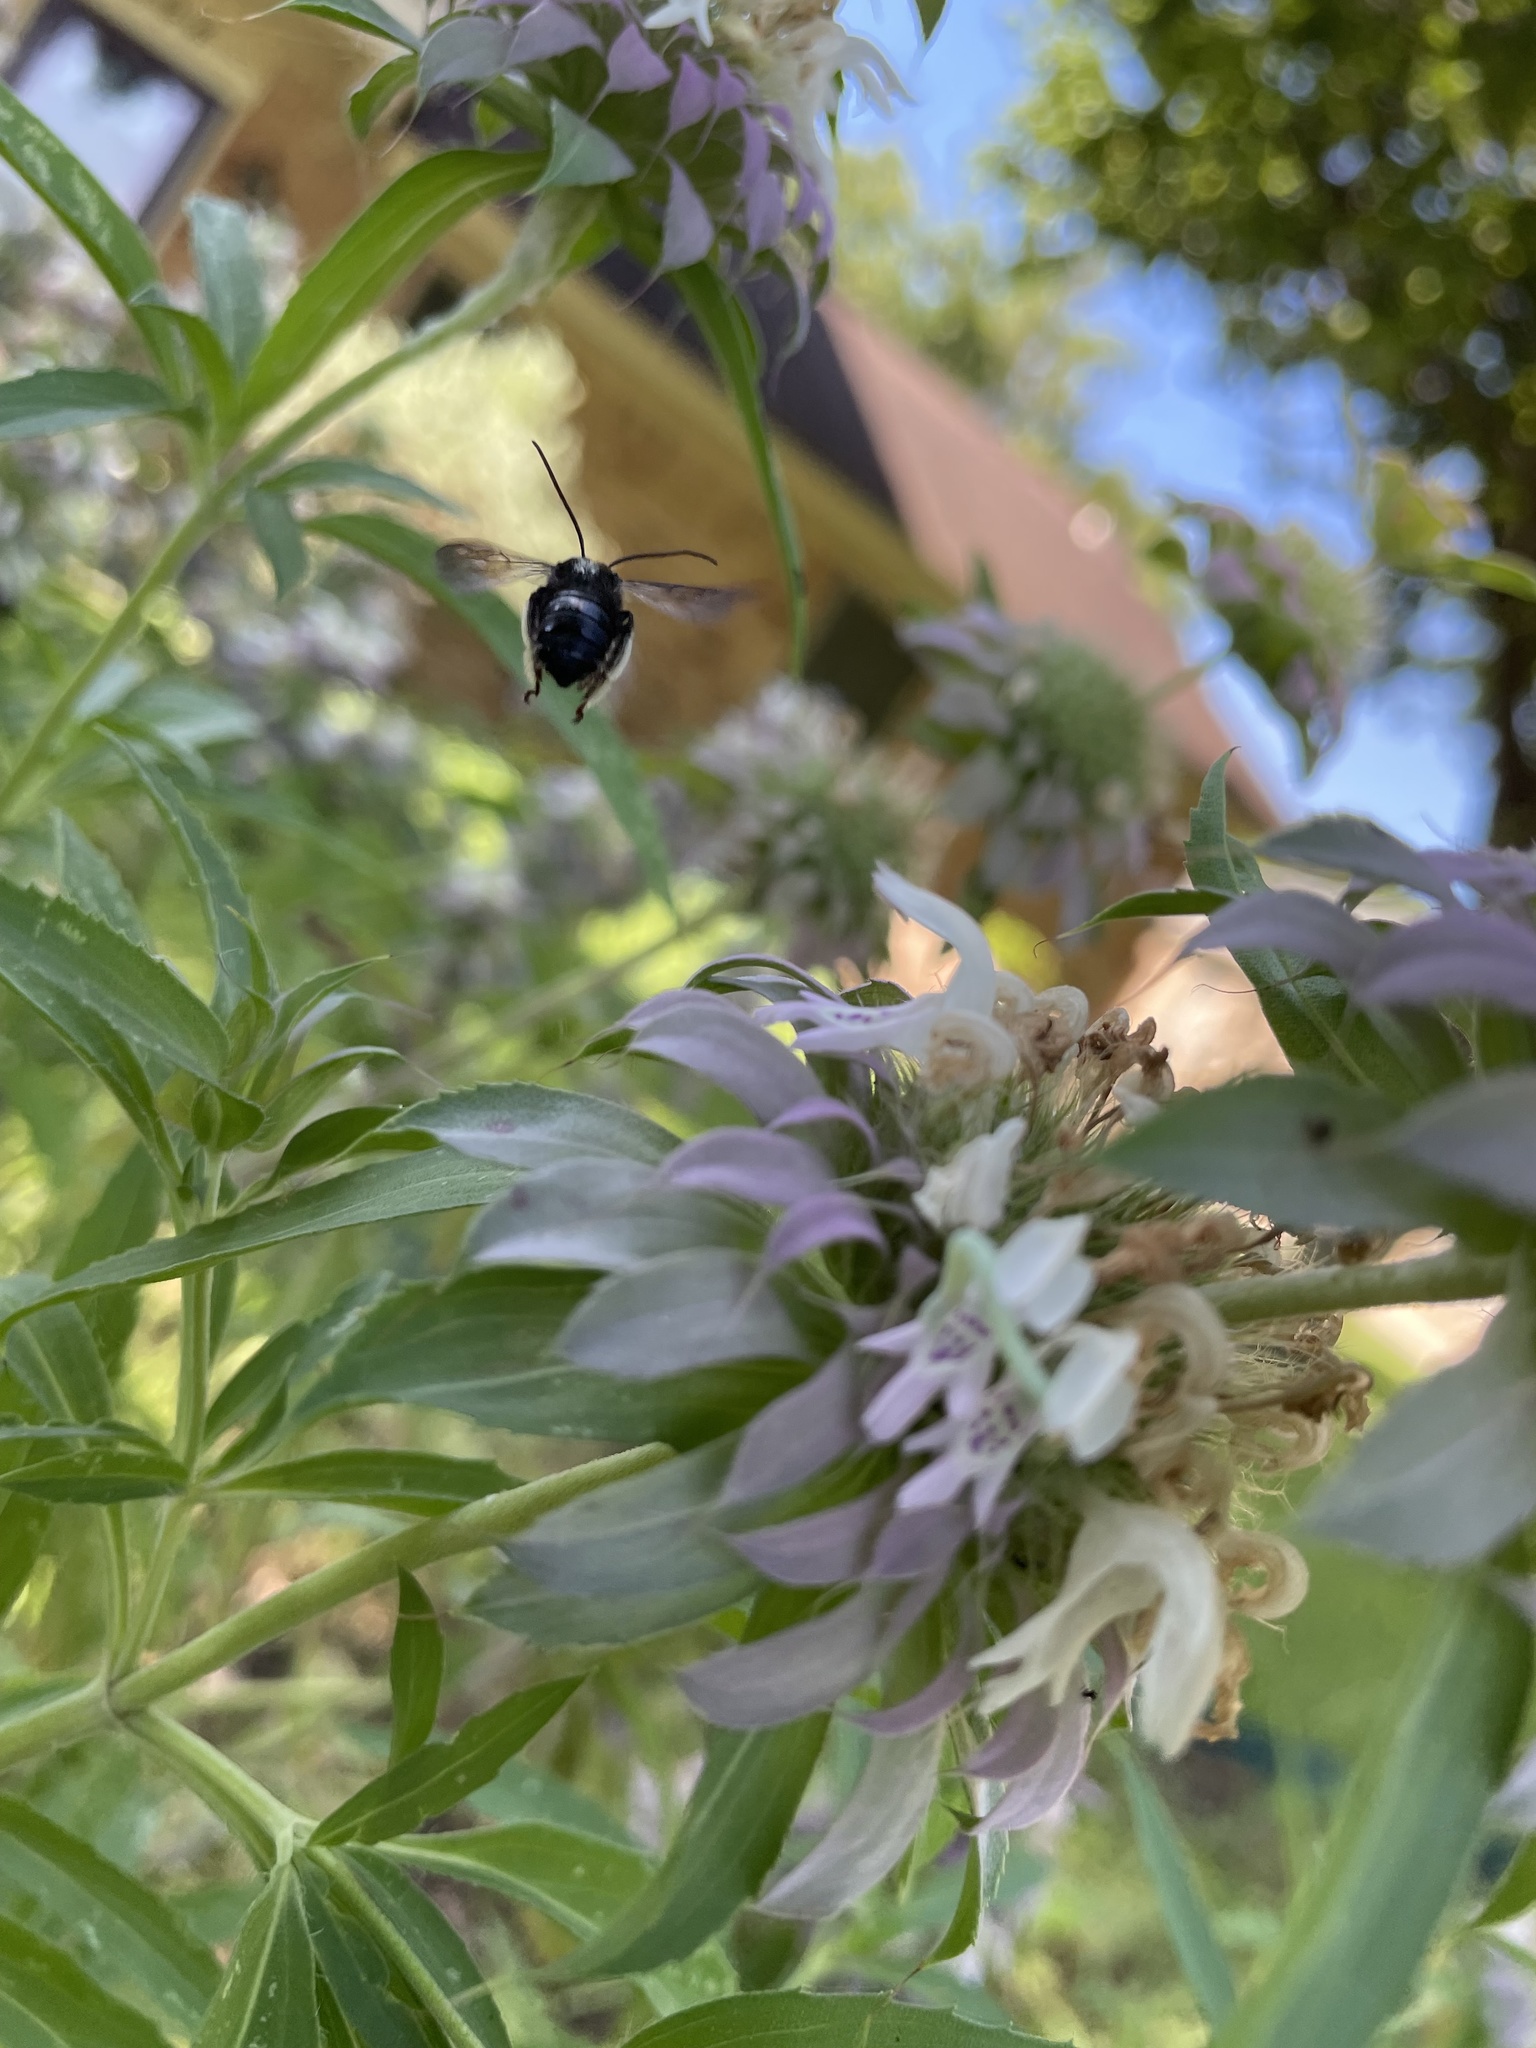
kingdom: Animalia
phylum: Arthropoda
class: Insecta
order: Hymenoptera
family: Apidae
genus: Melissodes
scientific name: Melissodes bimaculatus
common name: Two-spotted long-horned bee
